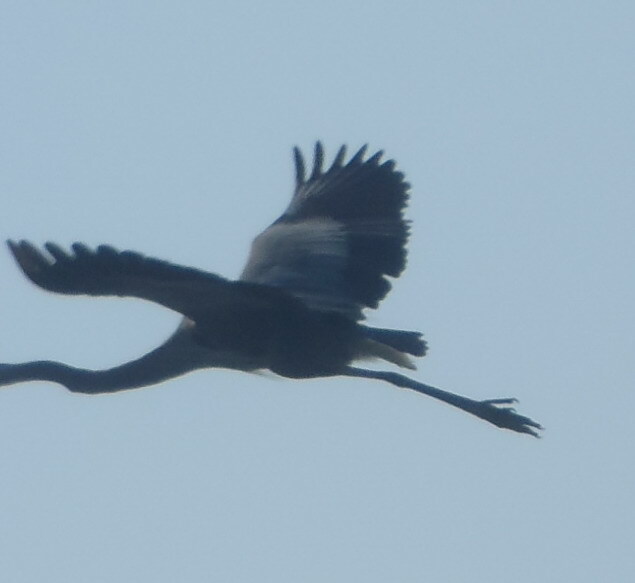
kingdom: Animalia
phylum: Chordata
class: Aves
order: Pelecaniformes
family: Ardeidae
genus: Ardea
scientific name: Ardea herodias
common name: Great blue heron
